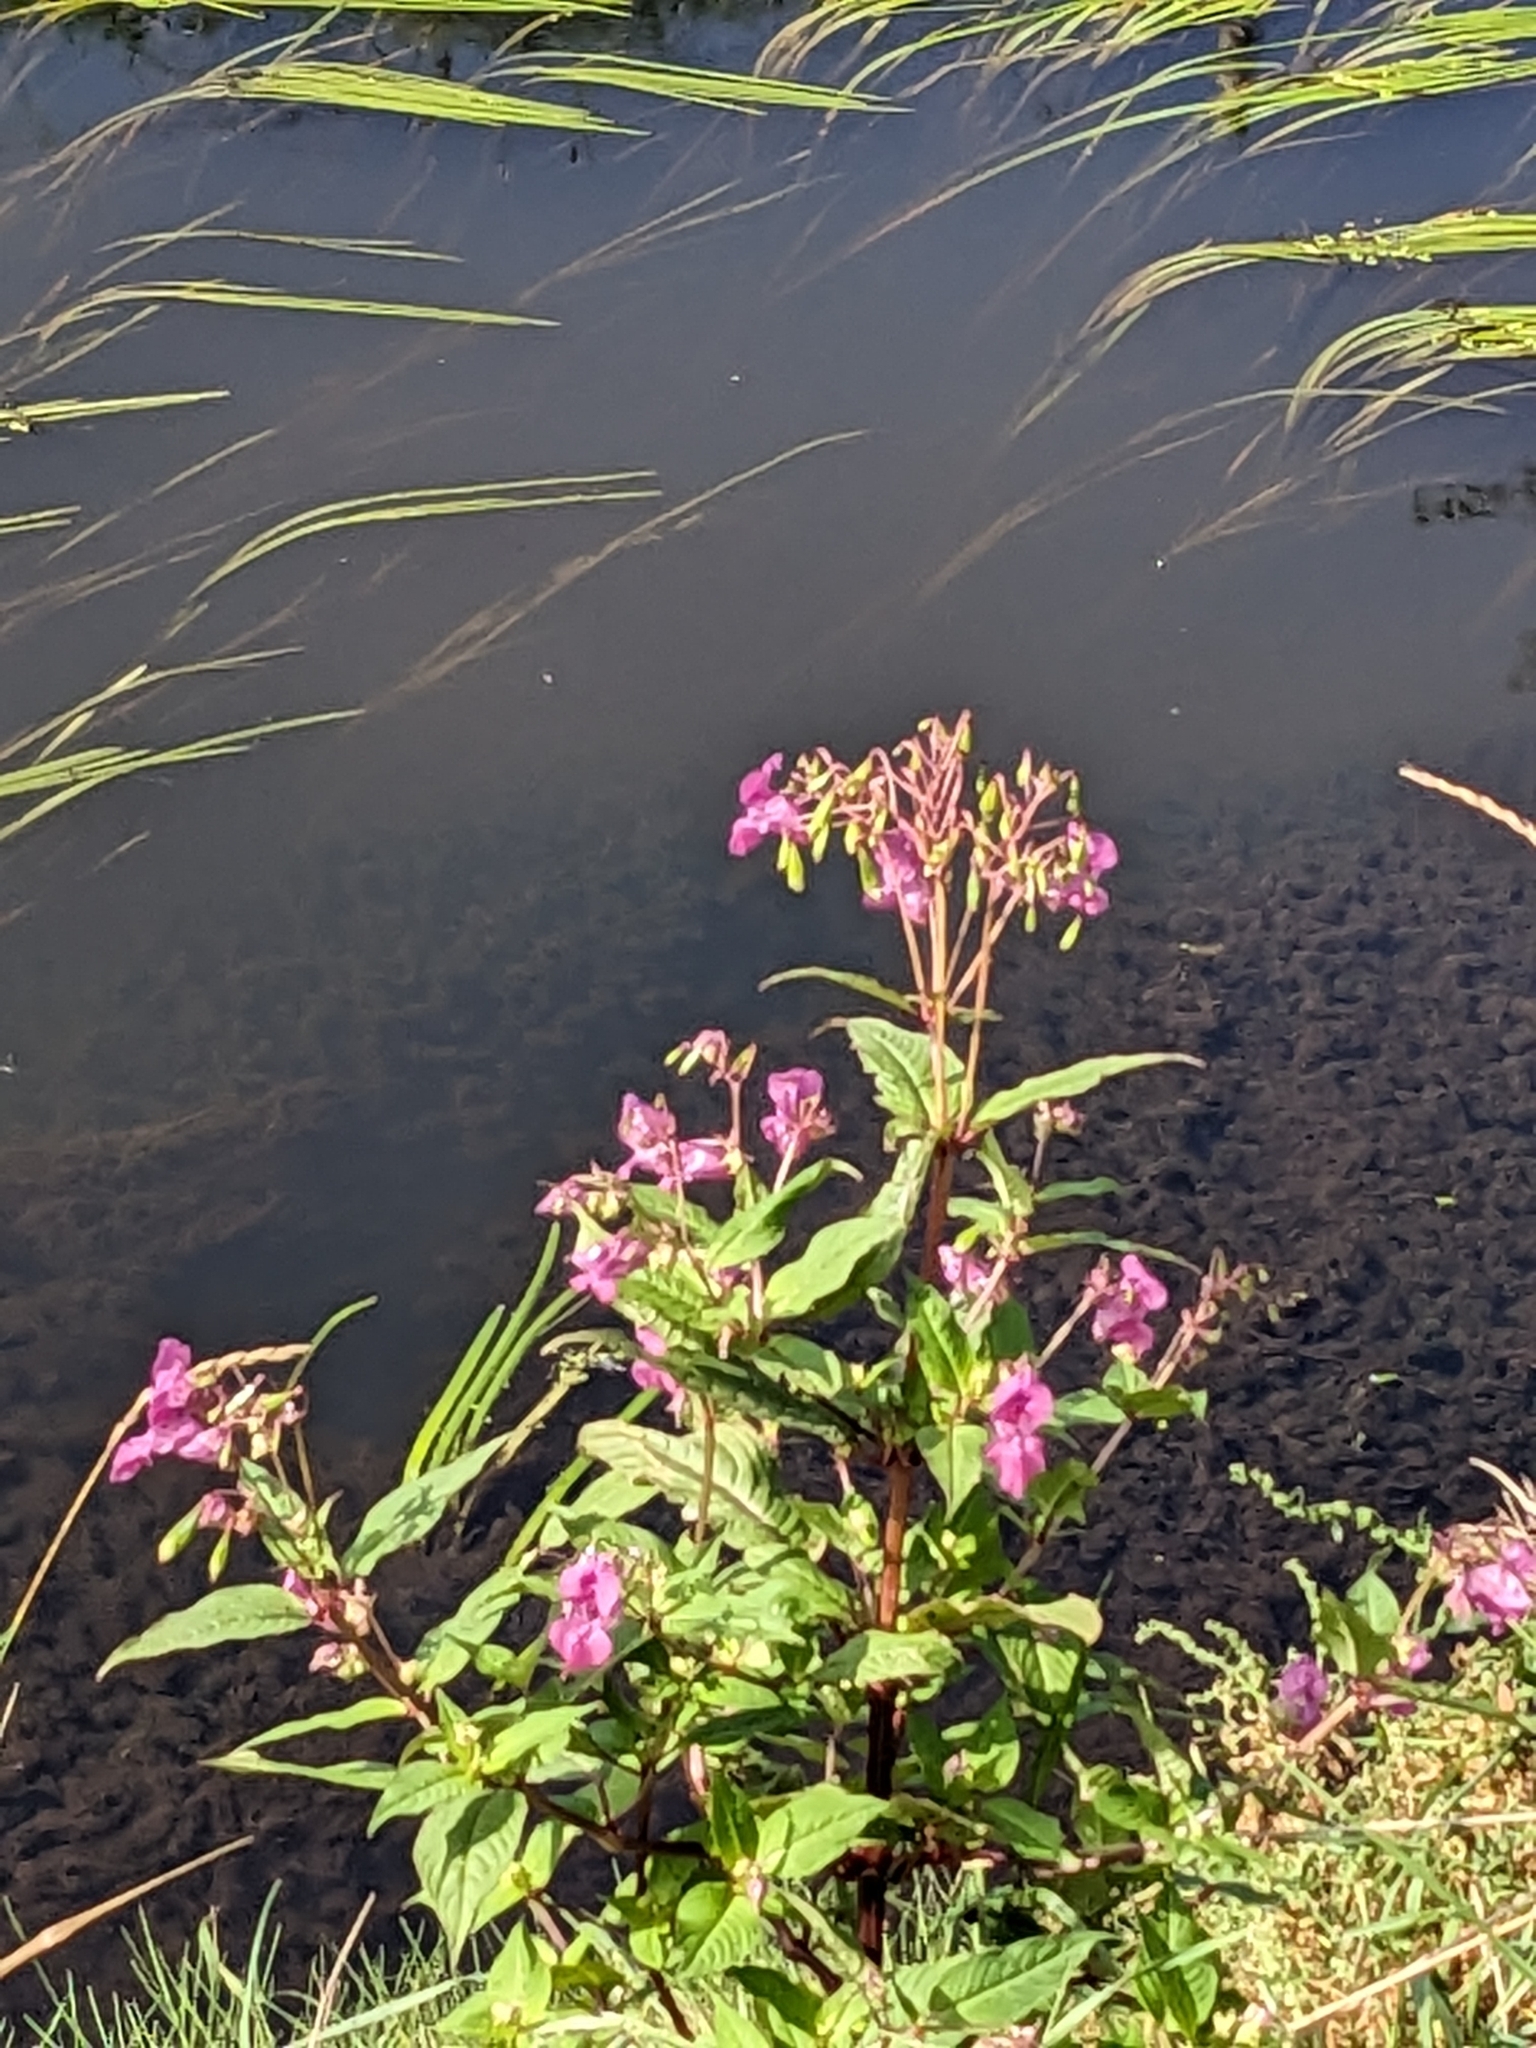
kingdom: Plantae
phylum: Tracheophyta
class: Magnoliopsida
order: Ericales
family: Balsaminaceae
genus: Impatiens
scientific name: Impatiens glandulifera
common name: Himalayan balsam
